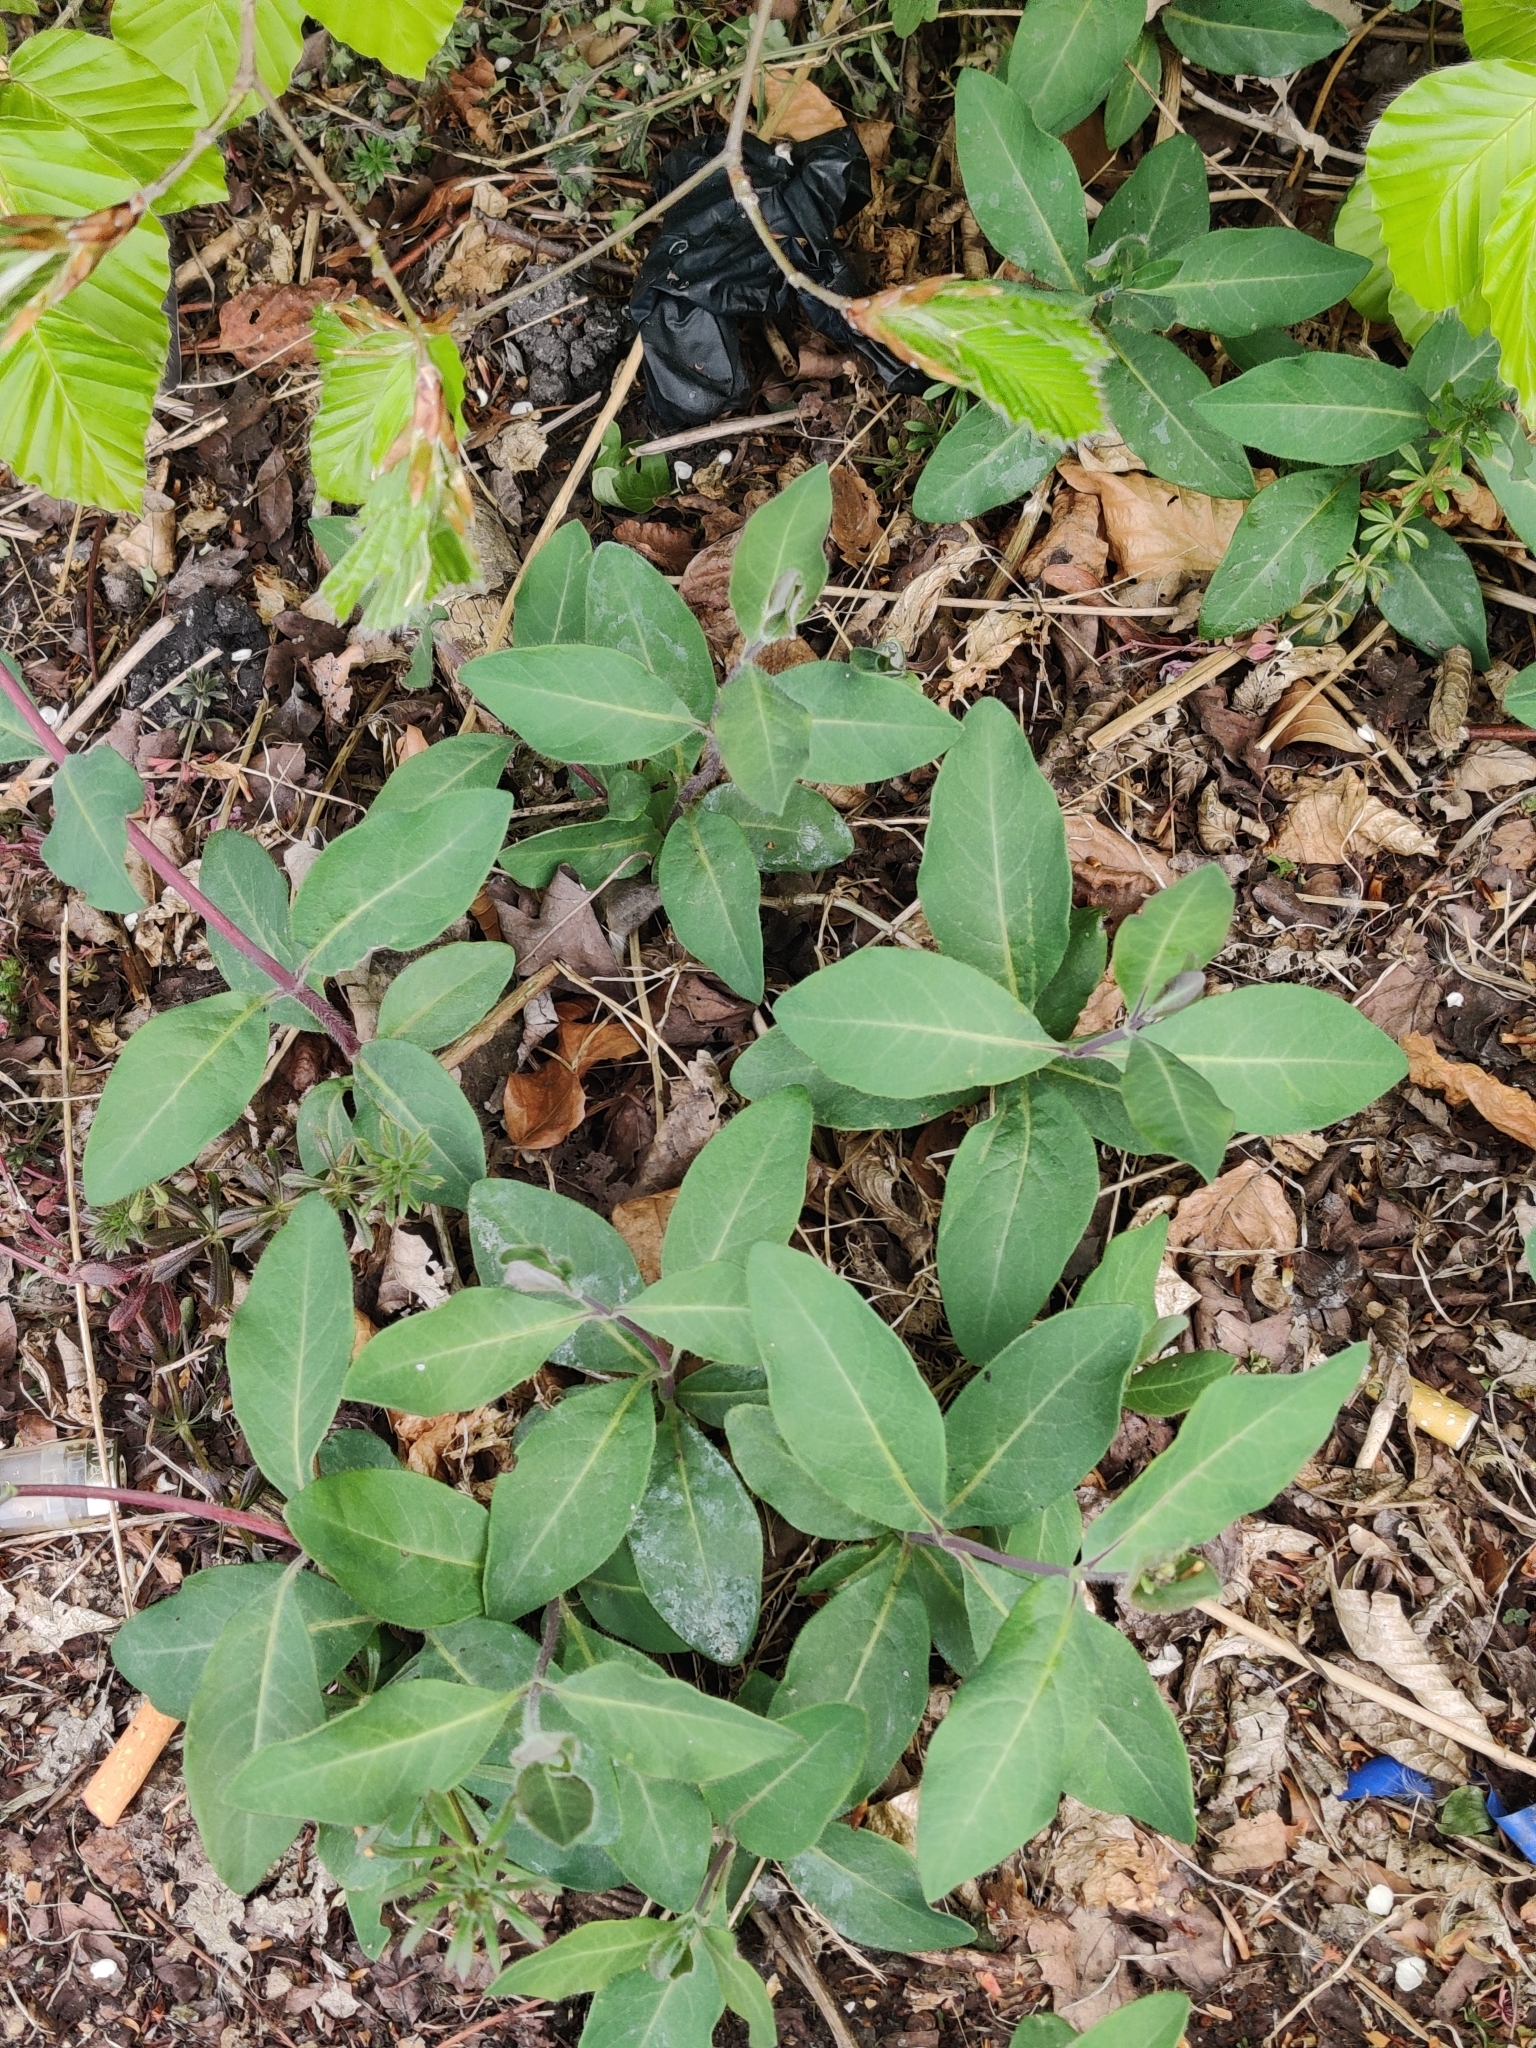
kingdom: Plantae
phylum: Tracheophyta
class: Magnoliopsida
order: Dipsacales
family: Caprifoliaceae
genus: Lonicera
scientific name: Lonicera periclymenum
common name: European honeysuckle
